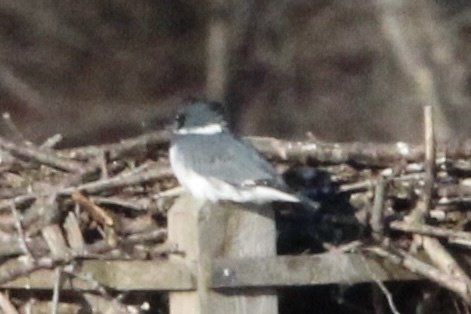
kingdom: Animalia
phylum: Chordata
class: Aves
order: Coraciiformes
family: Alcedinidae
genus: Megaceryle
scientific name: Megaceryle alcyon
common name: Belted kingfisher
